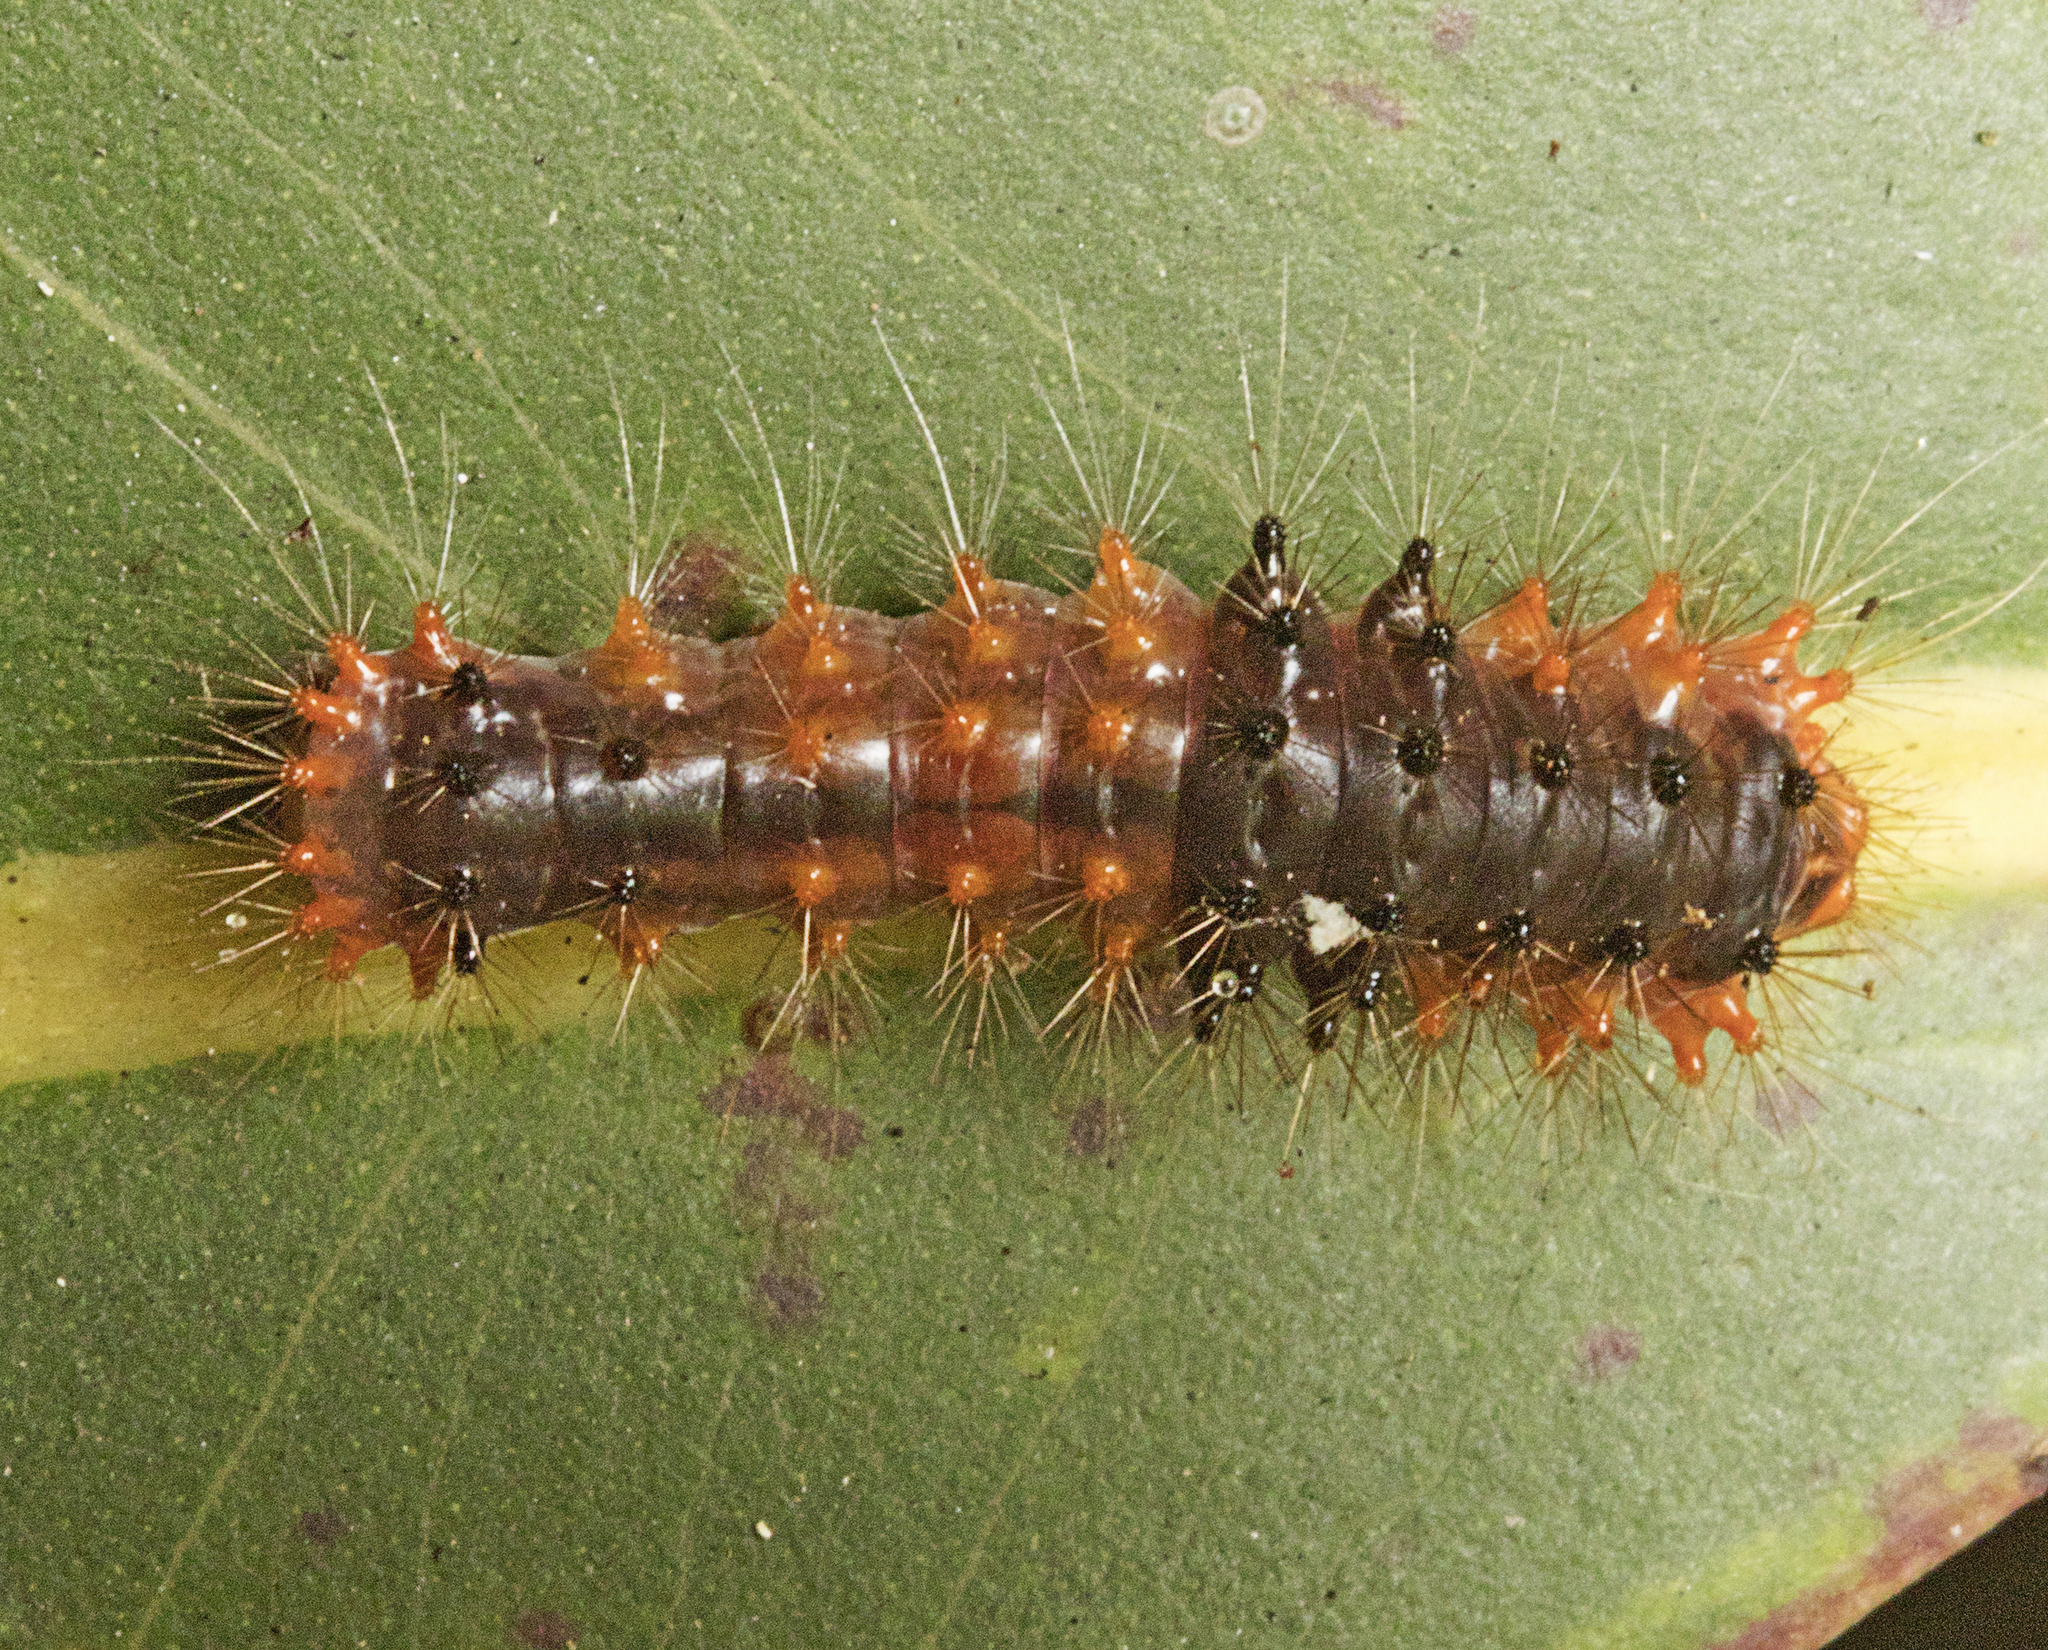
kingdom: Animalia
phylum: Arthropoda
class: Insecta
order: Lepidoptera
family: Nolidae
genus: Barasa
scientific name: Barasa cymatistis
